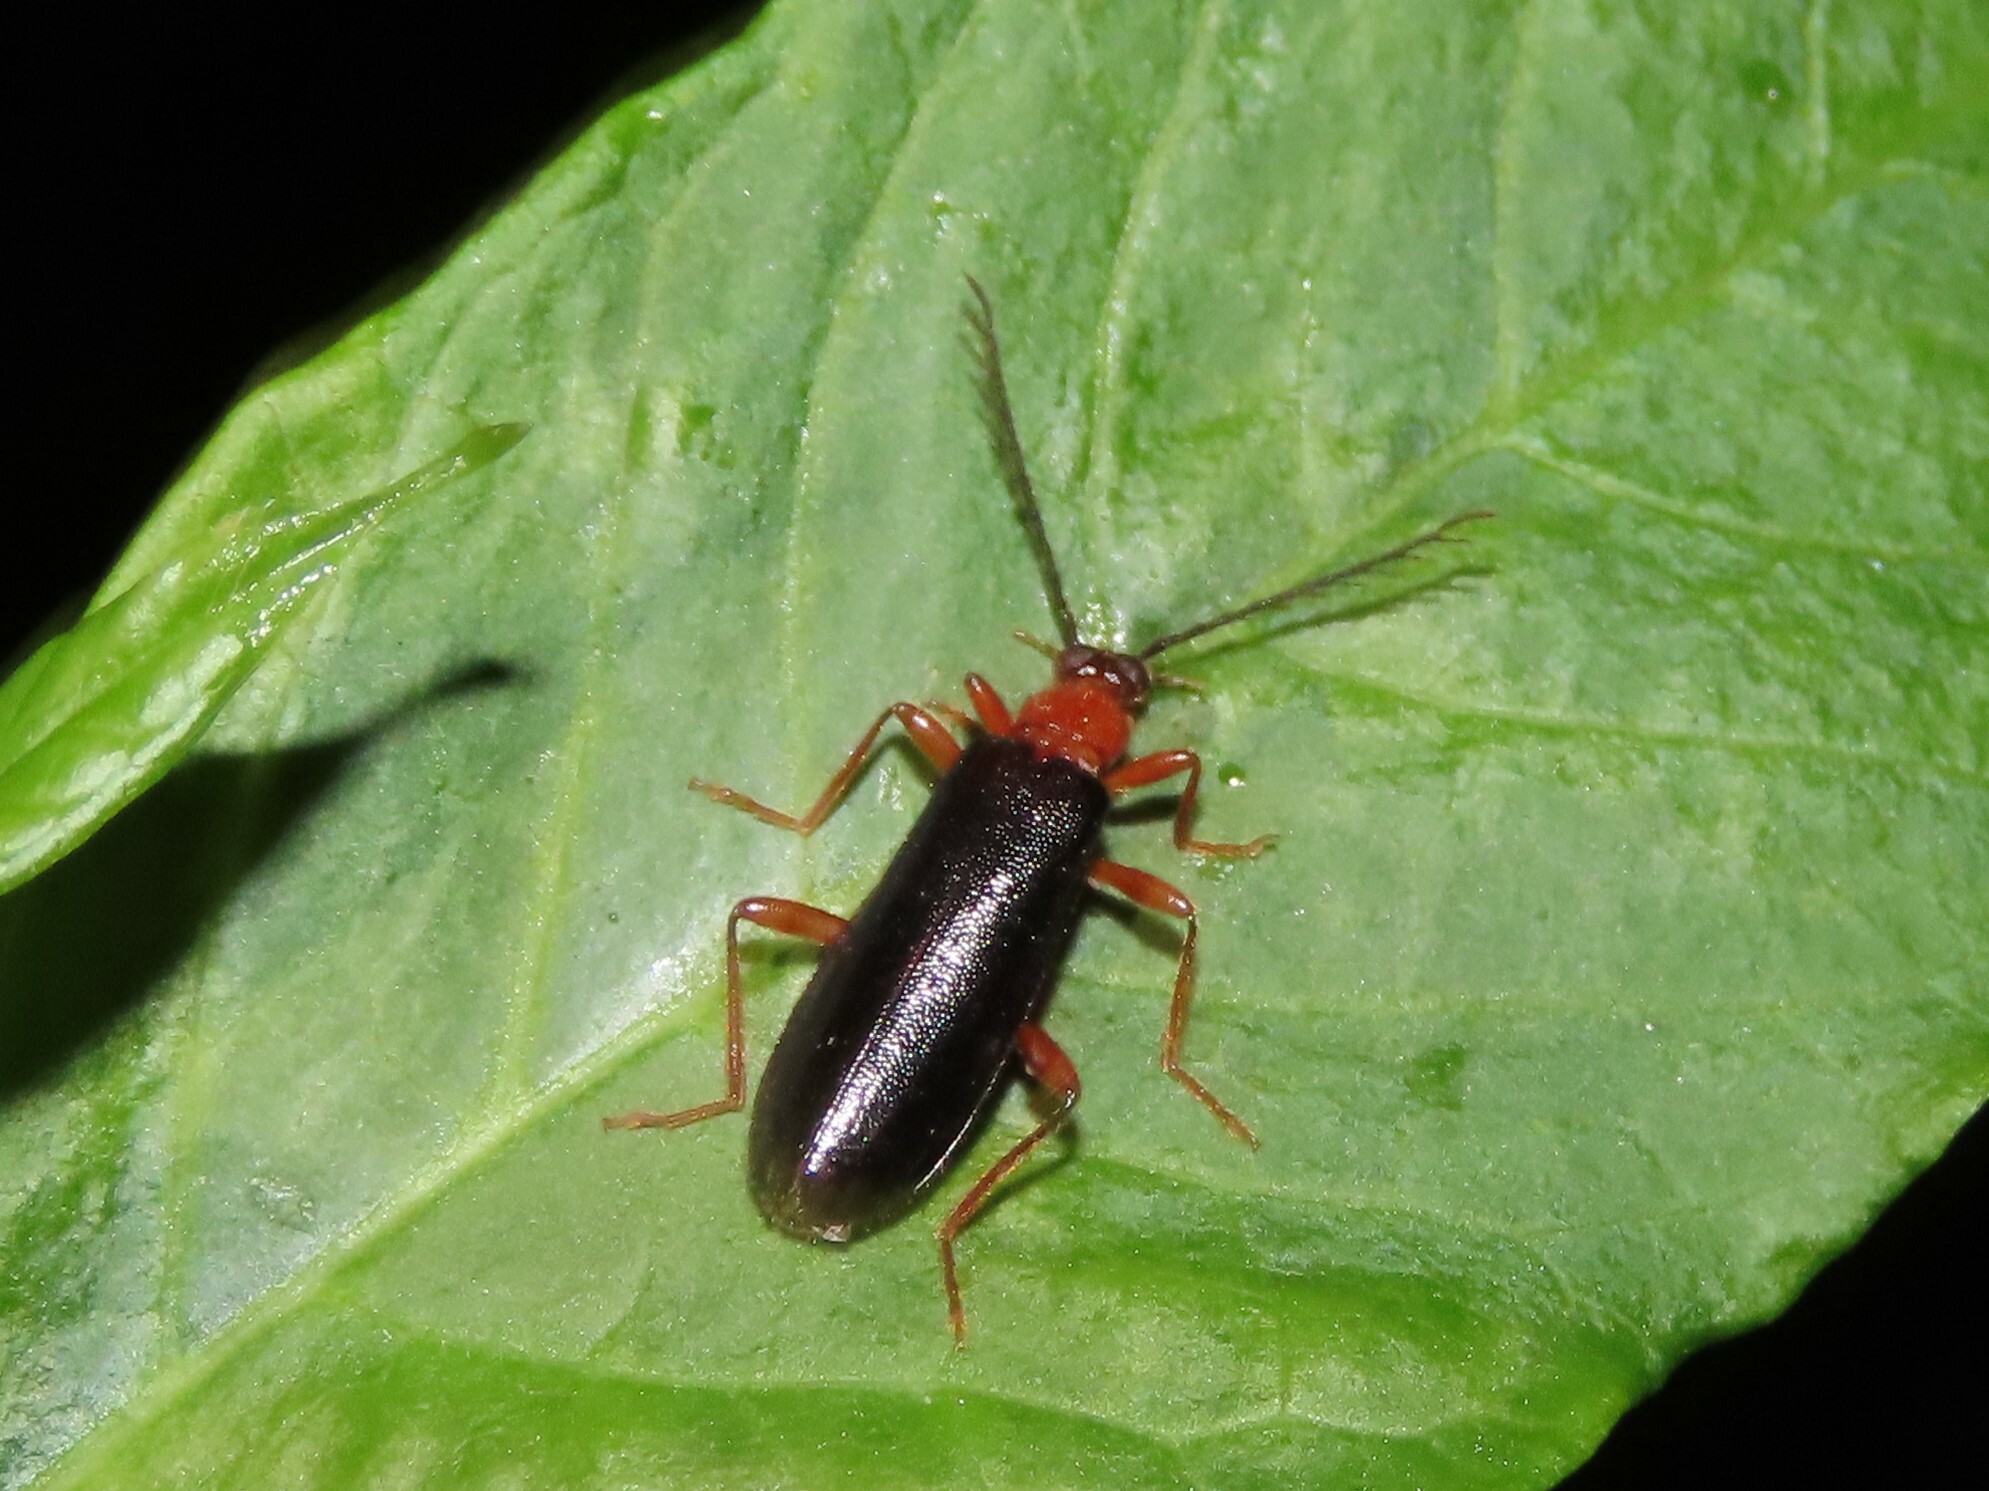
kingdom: Animalia
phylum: Arthropoda
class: Insecta
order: Coleoptera
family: Pyrochroidae
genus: Dendroides
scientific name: Dendroides canadensis
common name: Canada fire-colored beetle
